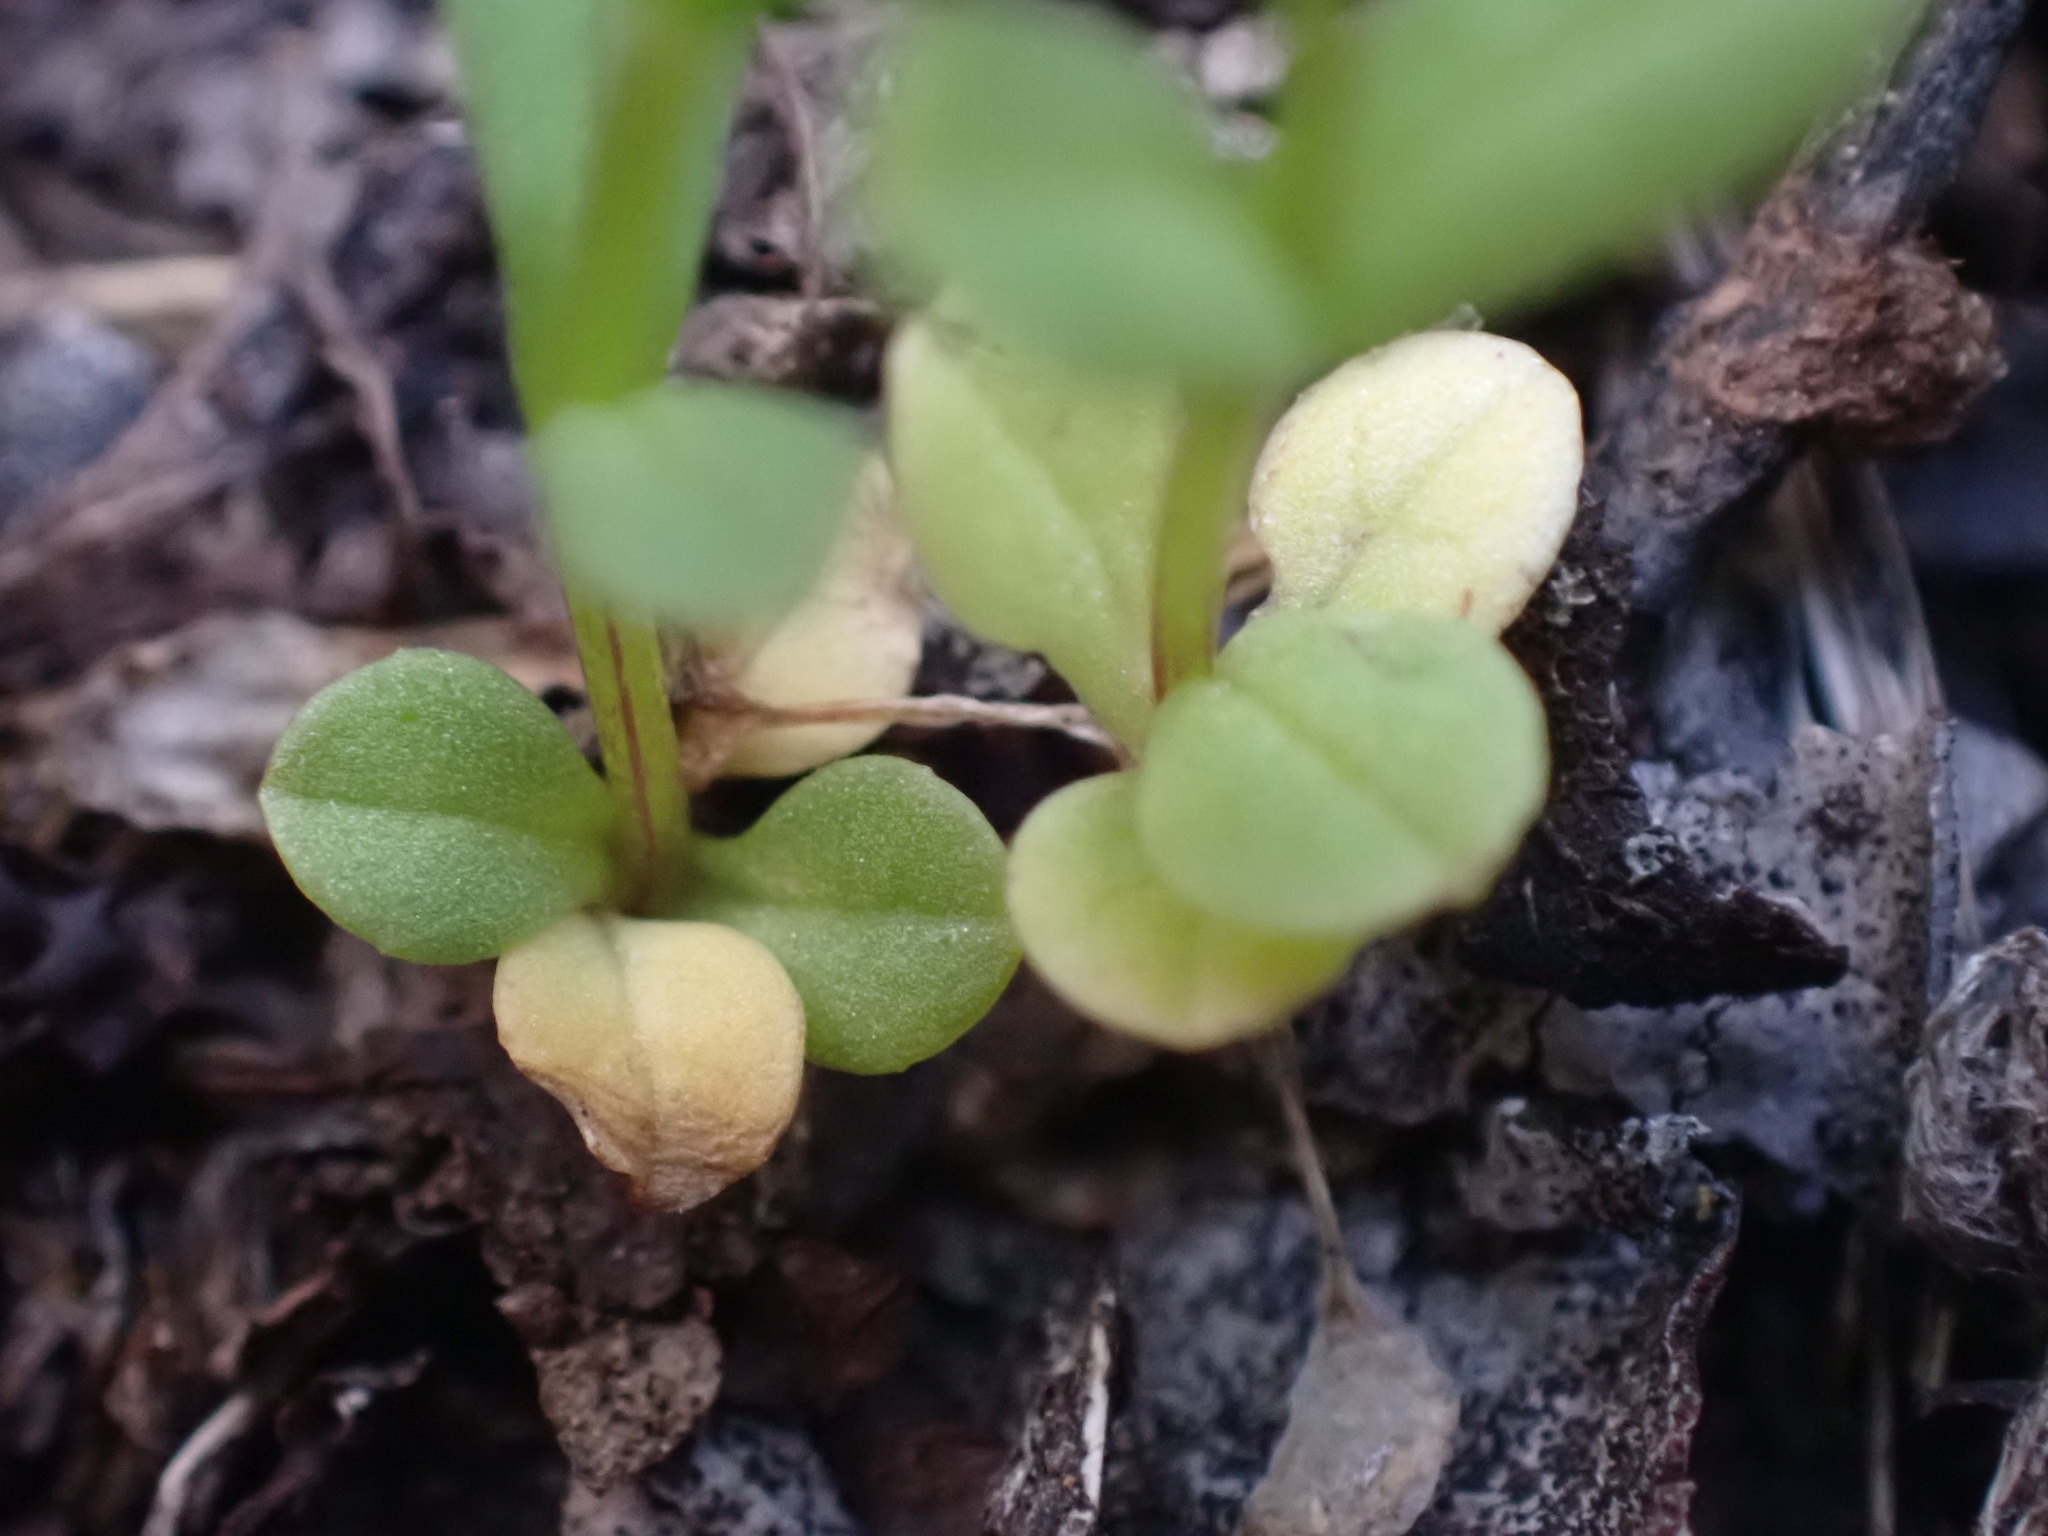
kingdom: Plantae
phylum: Tracheophyta
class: Magnoliopsida
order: Dipsacales
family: Caprifoliaceae
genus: Plectritis
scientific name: Plectritis congesta
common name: Pink plectritis
